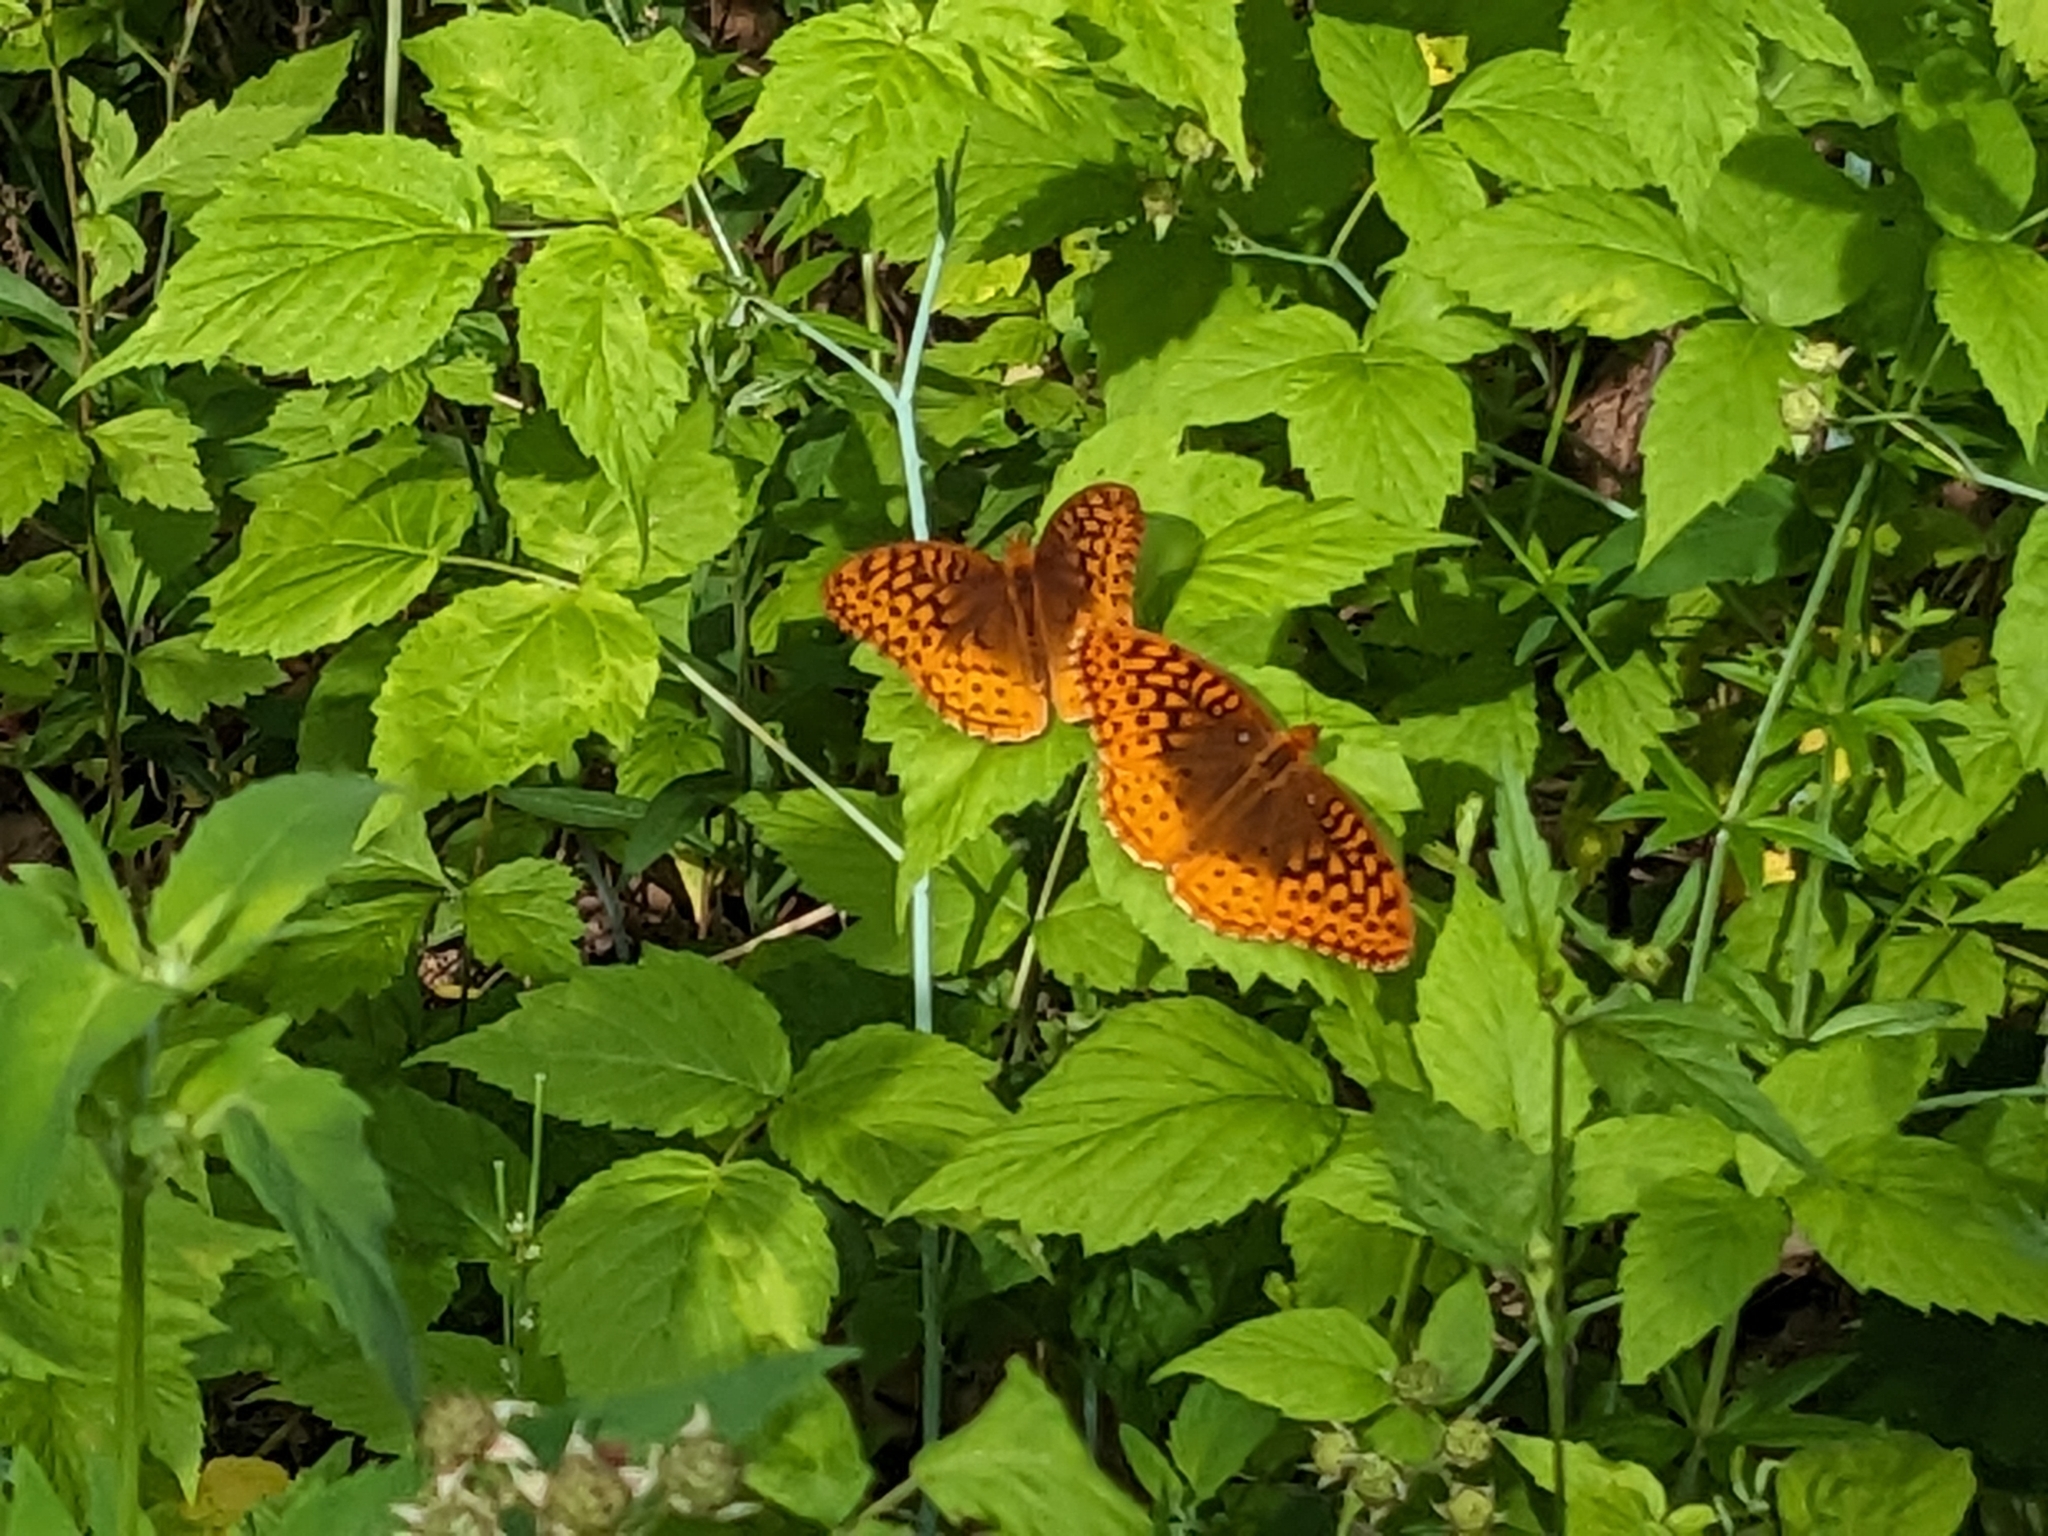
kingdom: Animalia
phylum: Arthropoda
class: Insecta
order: Lepidoptera
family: Nymphalidae
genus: Speyeria
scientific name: Speyeria cybele
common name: Great spangled fritillary
